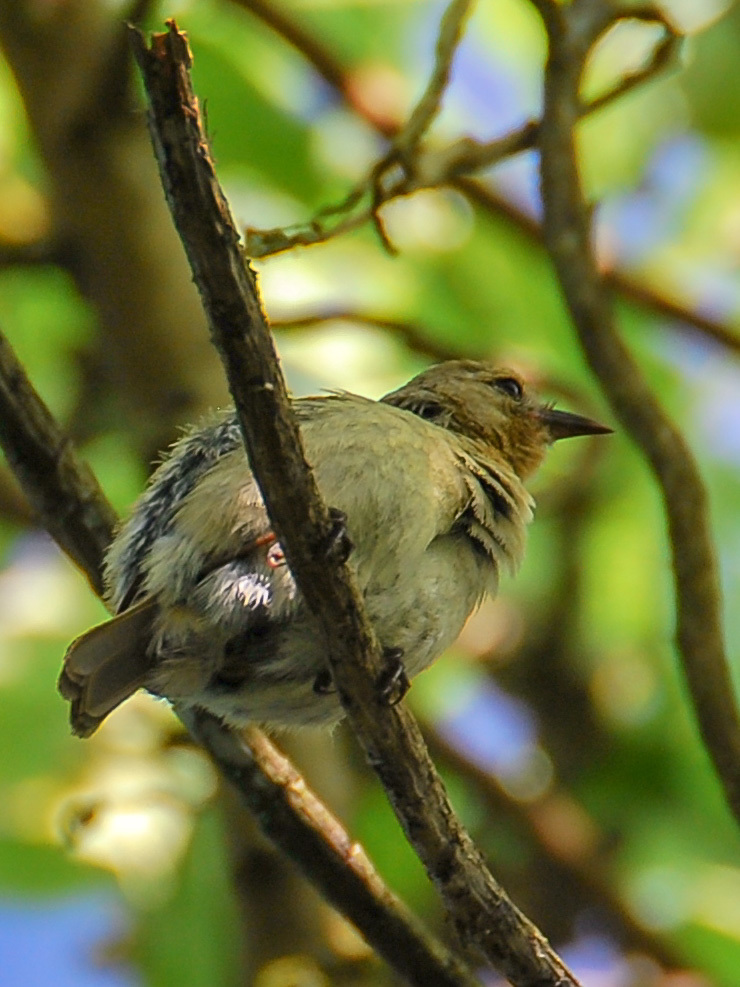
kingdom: Animalia
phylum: Chordata
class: Aves
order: Passeriformes
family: Thraupidae
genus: Certhidea
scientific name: Certhidea olivacea
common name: Green warbler-finch
